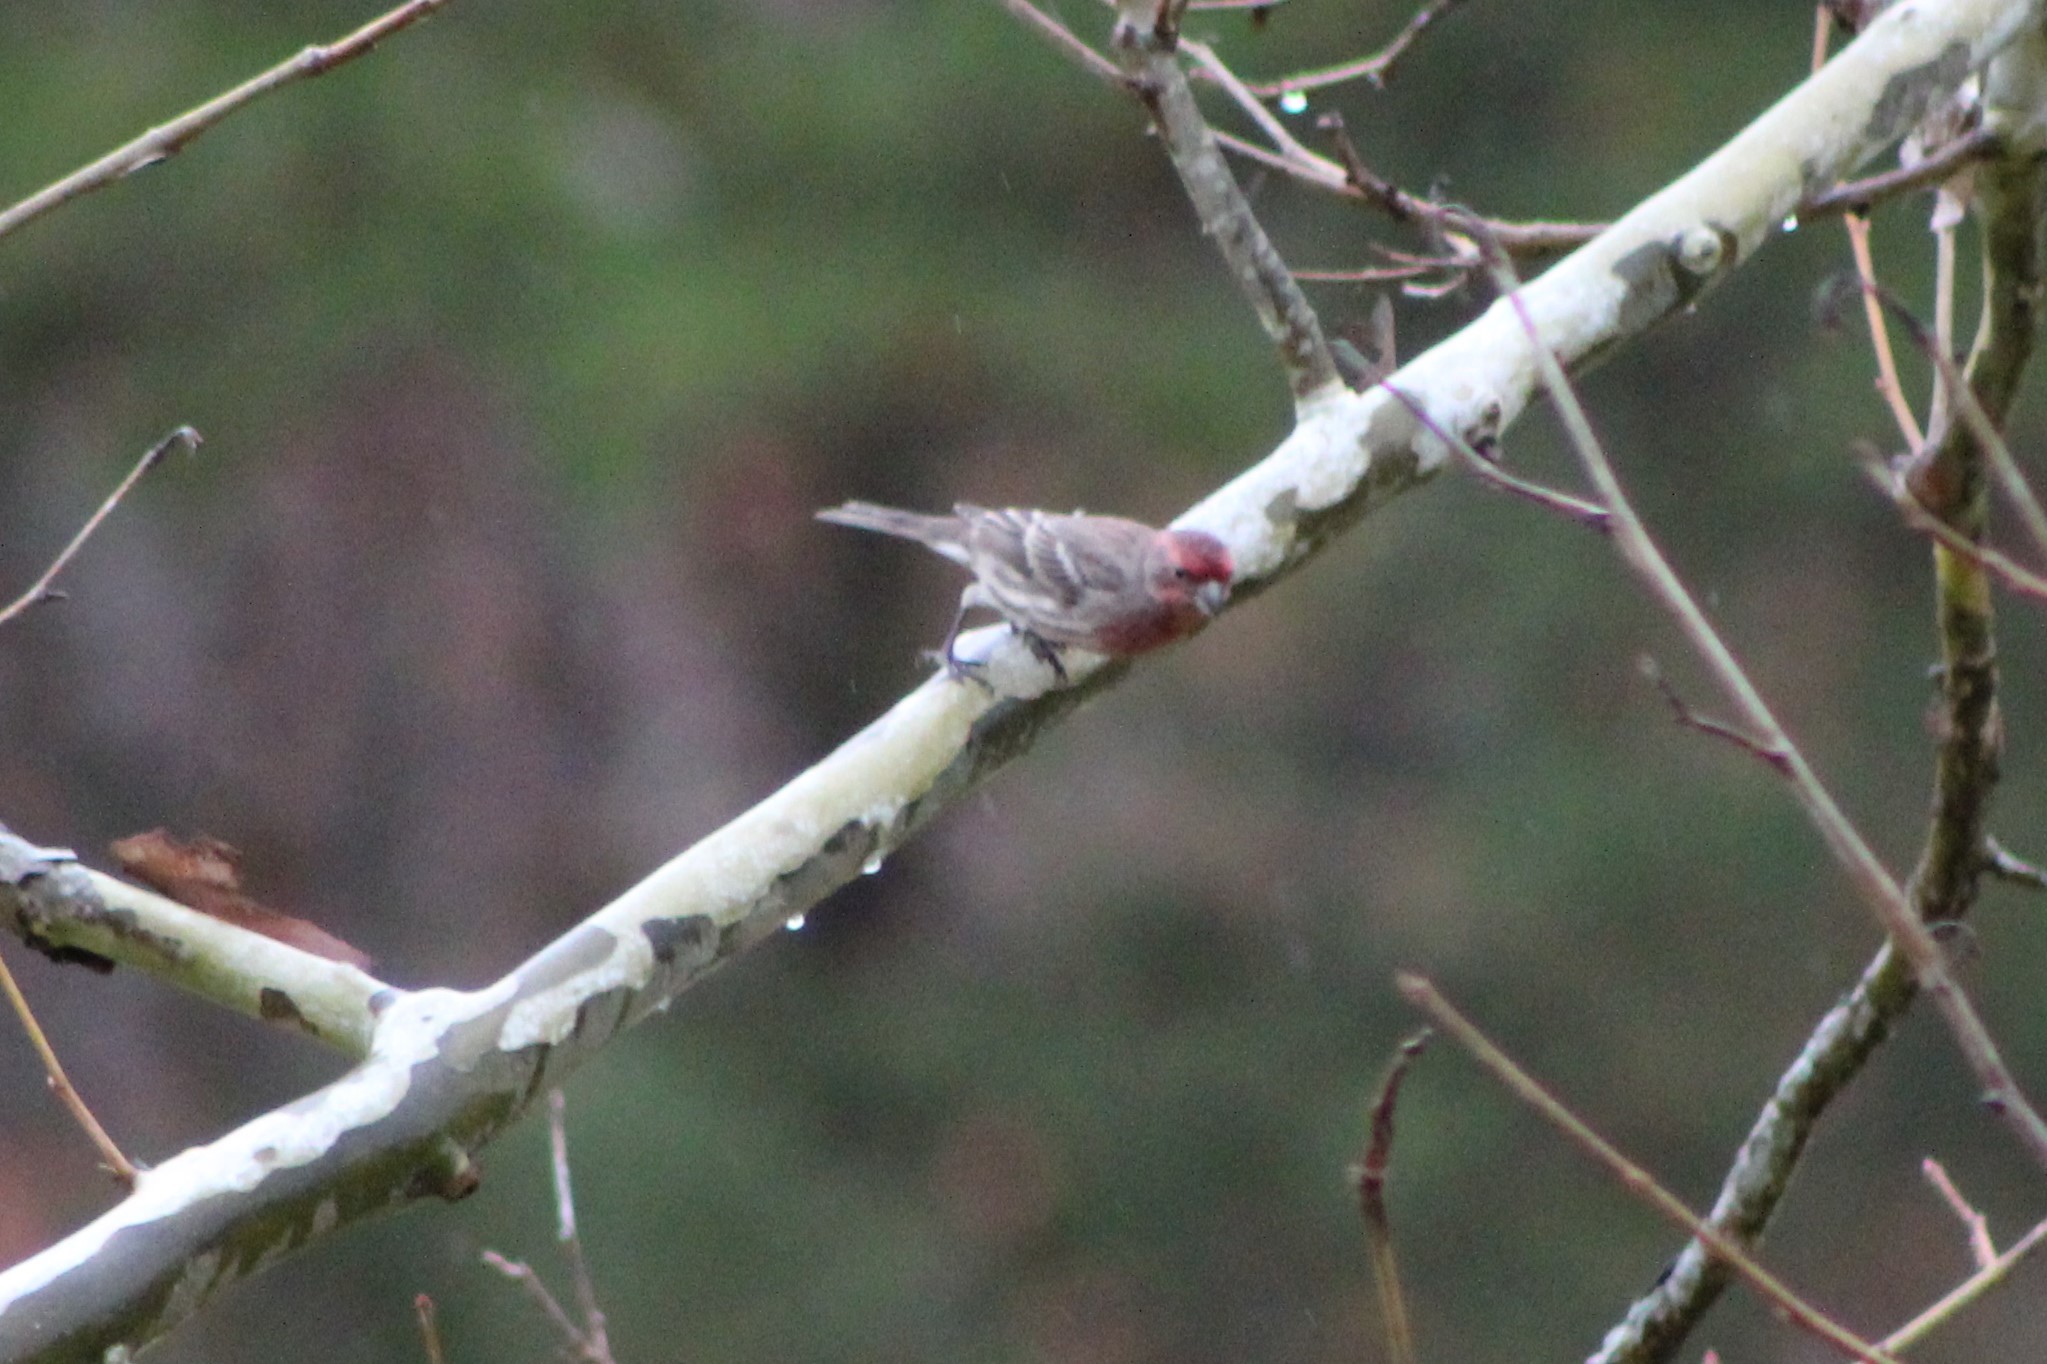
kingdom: Animalia
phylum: Chordata
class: Aves
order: Passeriformes
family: Fringillidae
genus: Haemorhous
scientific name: Haemorhous mexicanus
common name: House finch
